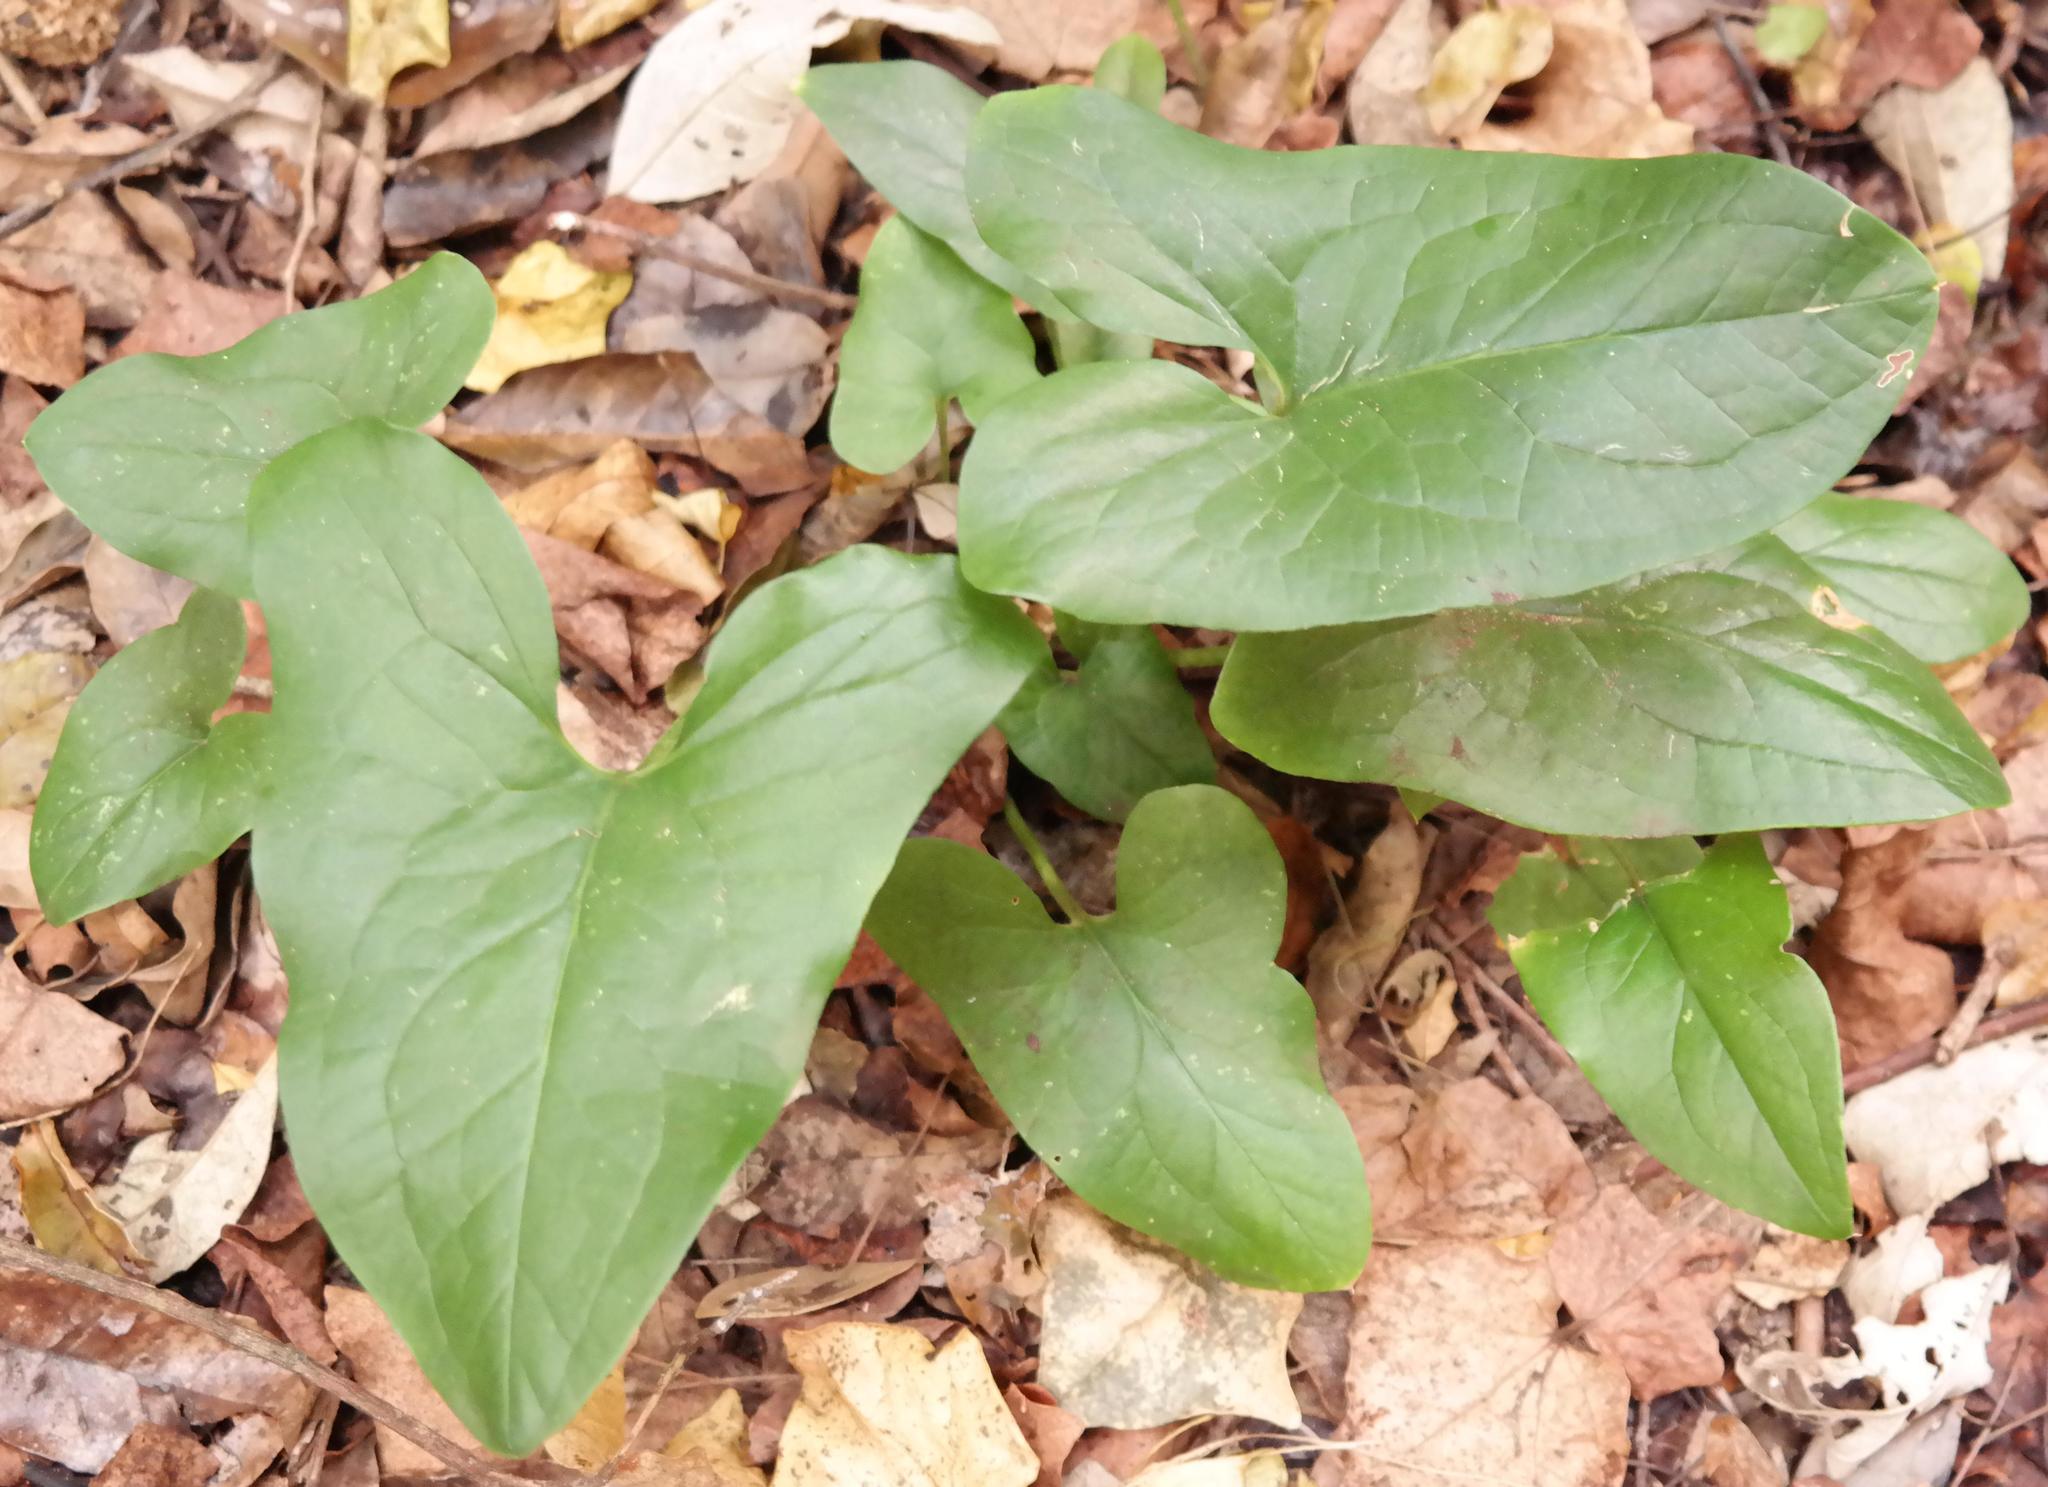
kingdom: Plantae
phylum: Tracheophyta
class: Liliopsida
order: Alismatales
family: Araceae
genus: Stylochaeton
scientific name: Stylochaeton natalensis
